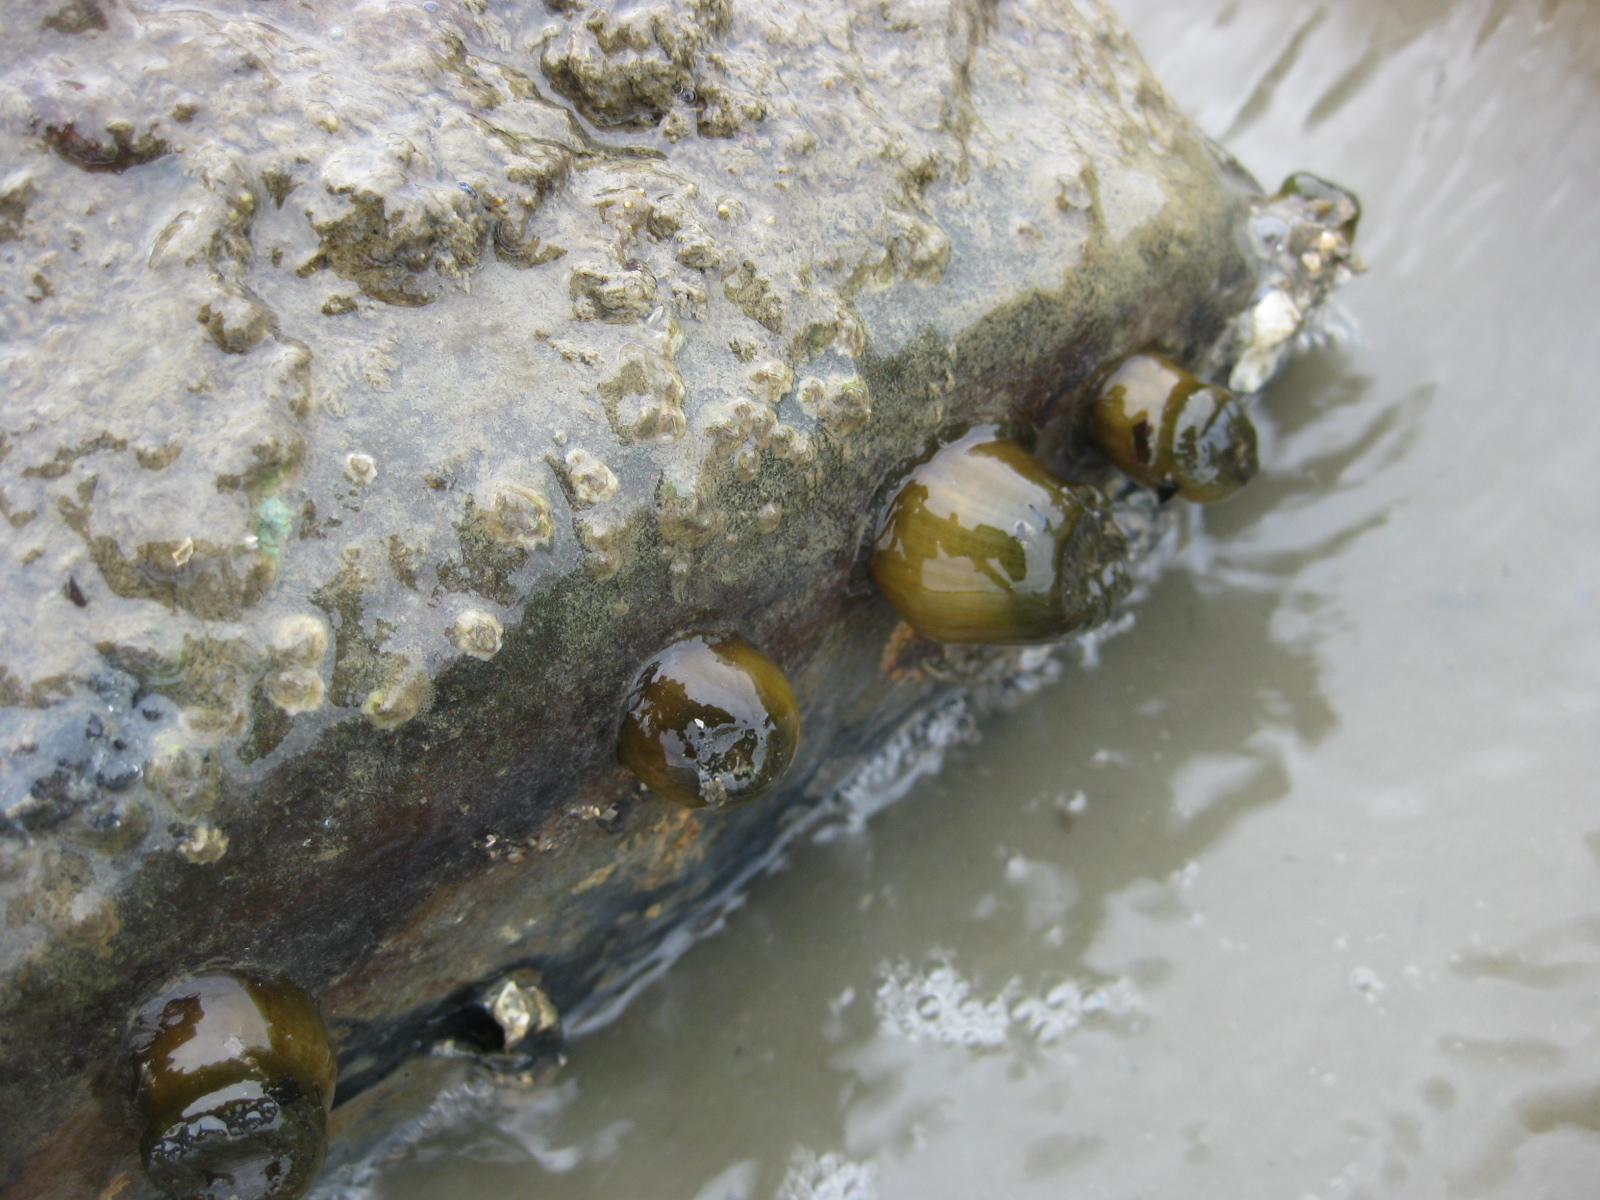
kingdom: Animalia
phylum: Cnidaria
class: Anthozoa
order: Actiniaria
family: Actiniidae
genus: Isactinia
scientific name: Isactinia olivacea
